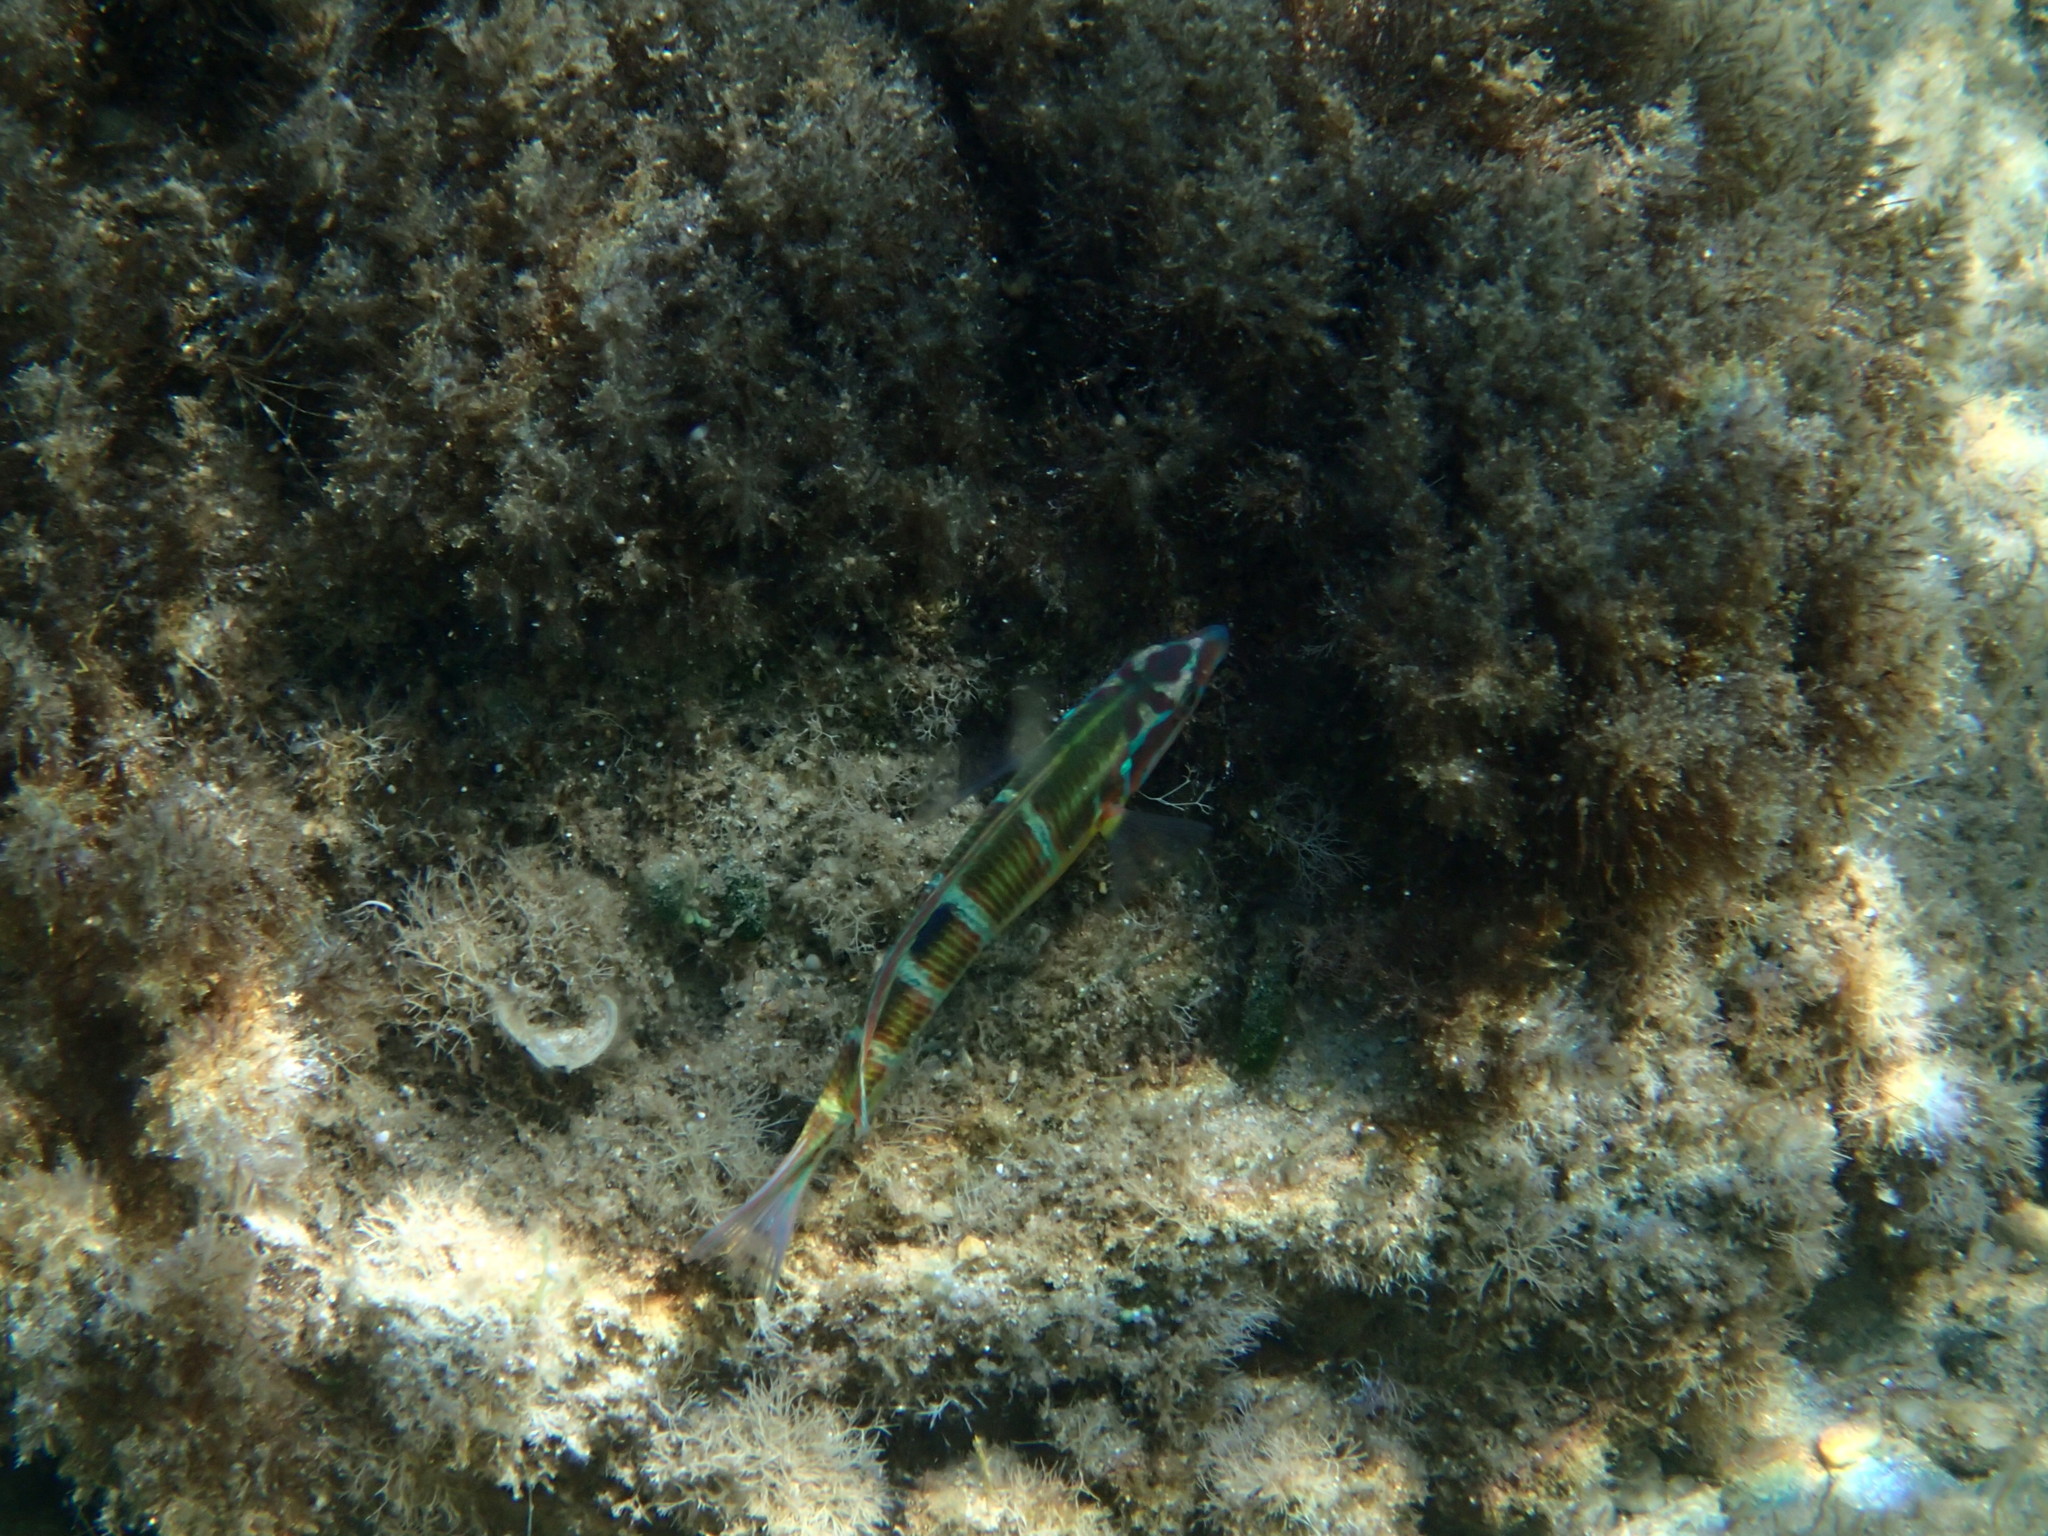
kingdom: Animalia
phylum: Chordata
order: Perciformes
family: Labridae
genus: Thalassoma
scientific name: Thalassoma pavo
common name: Ornate wrasse
